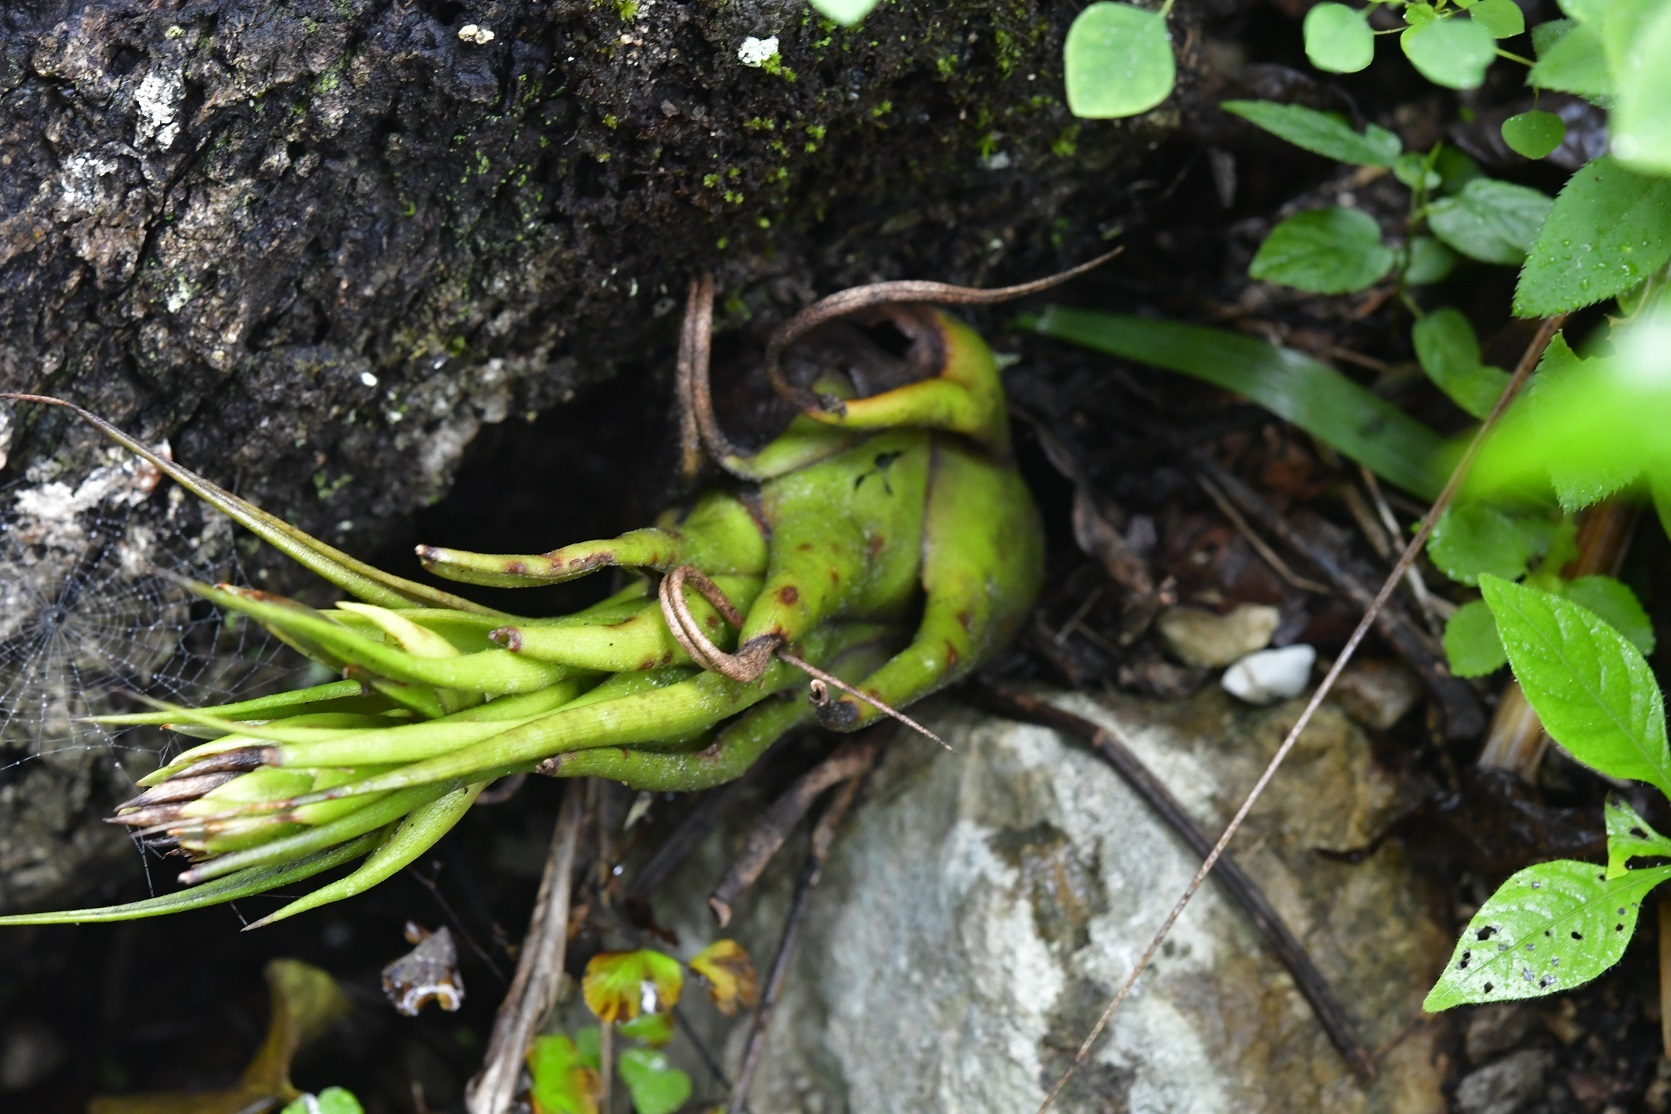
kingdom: Plantae
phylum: Tracheophyta
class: Liliopsida
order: Poales
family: Bromeliaceae
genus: Tillandsia
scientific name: Tillandsia seleriana
